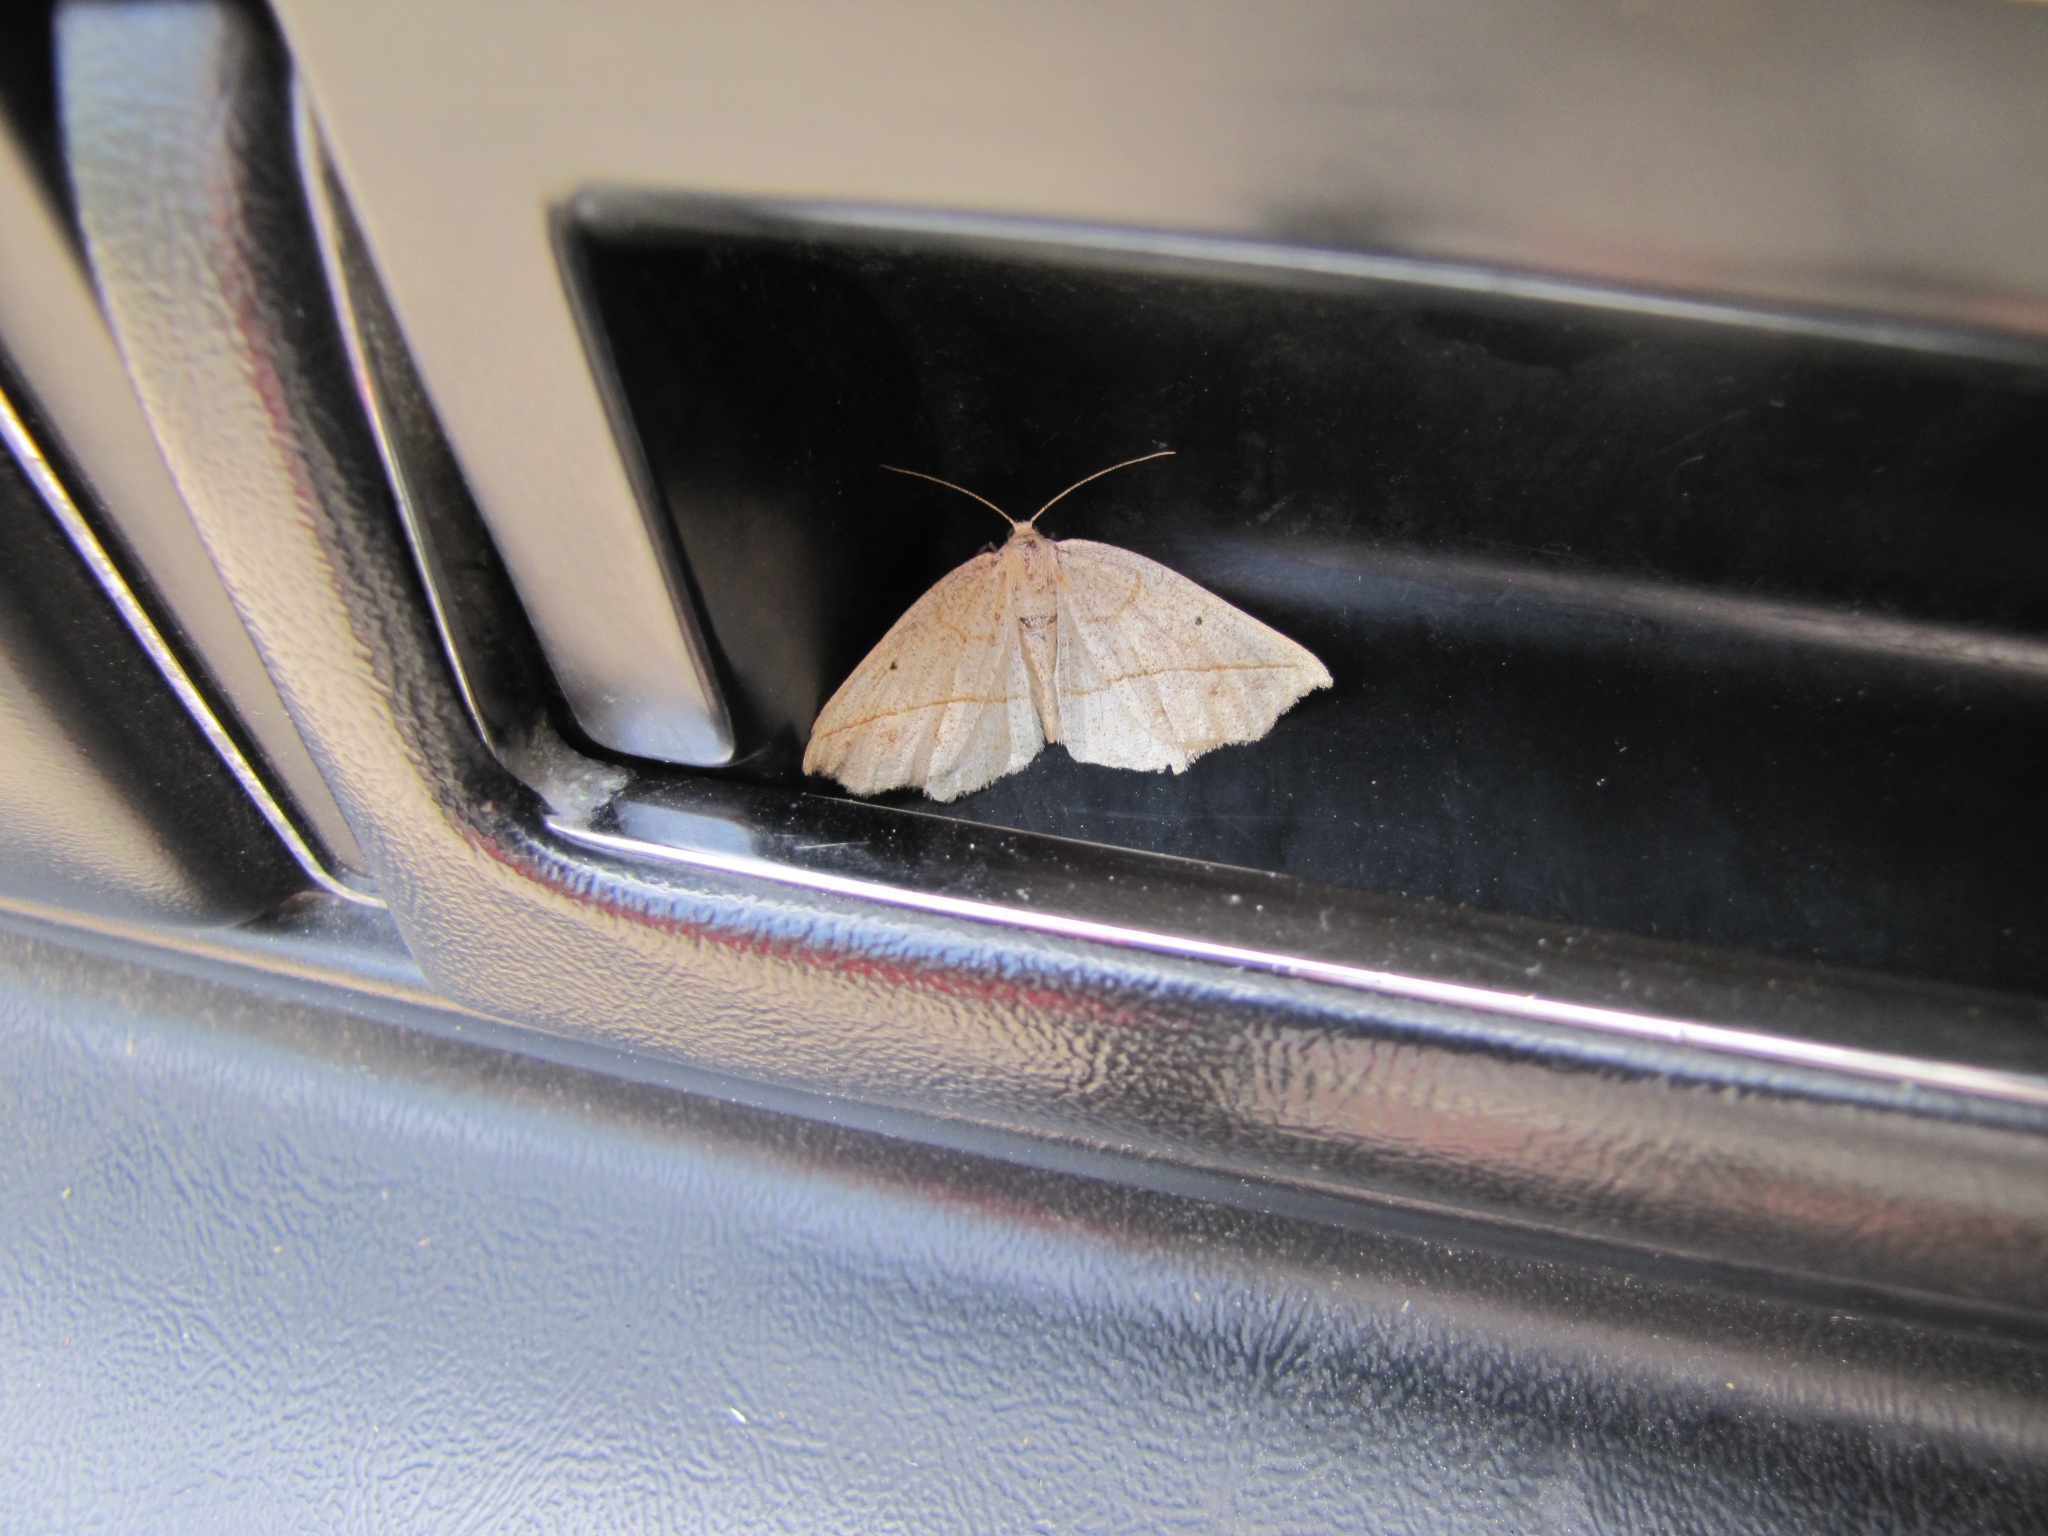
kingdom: Animalia
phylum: Arthropoda
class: Insecta
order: Lepidoptera
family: Geometridae
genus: Eusarca
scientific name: Eusarca confusaria
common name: Confused eusarca
